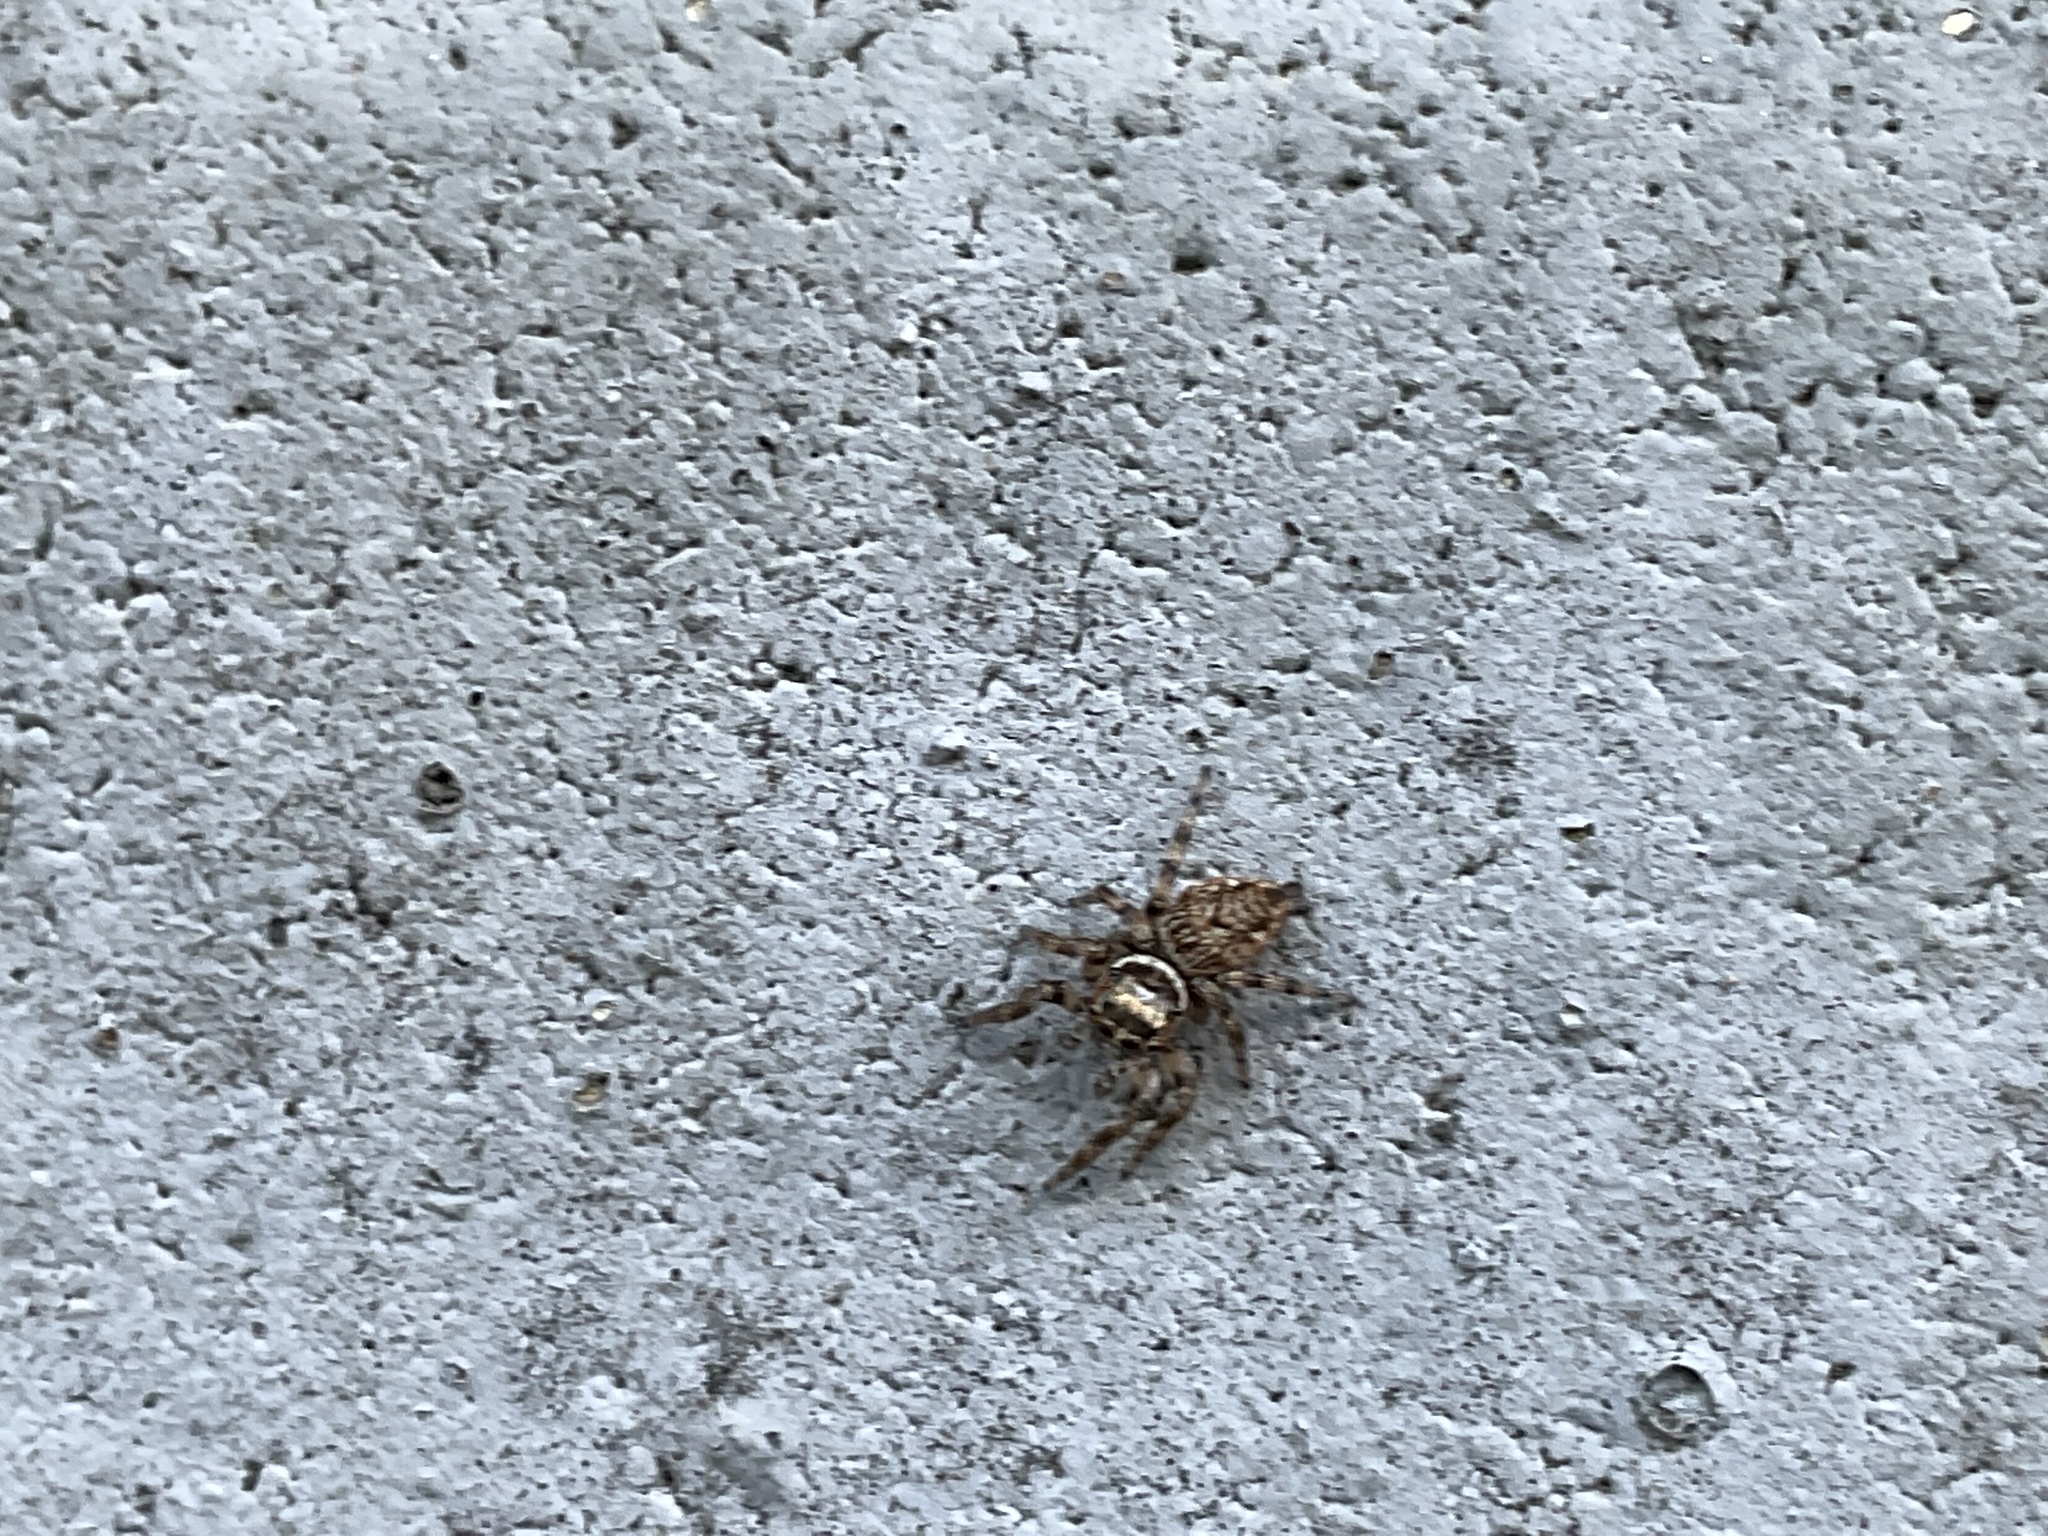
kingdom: Animalia
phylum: Arthropoda
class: Arachnida
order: Araneae
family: Salticidae
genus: Evarcha
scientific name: Evarcha jucunda
